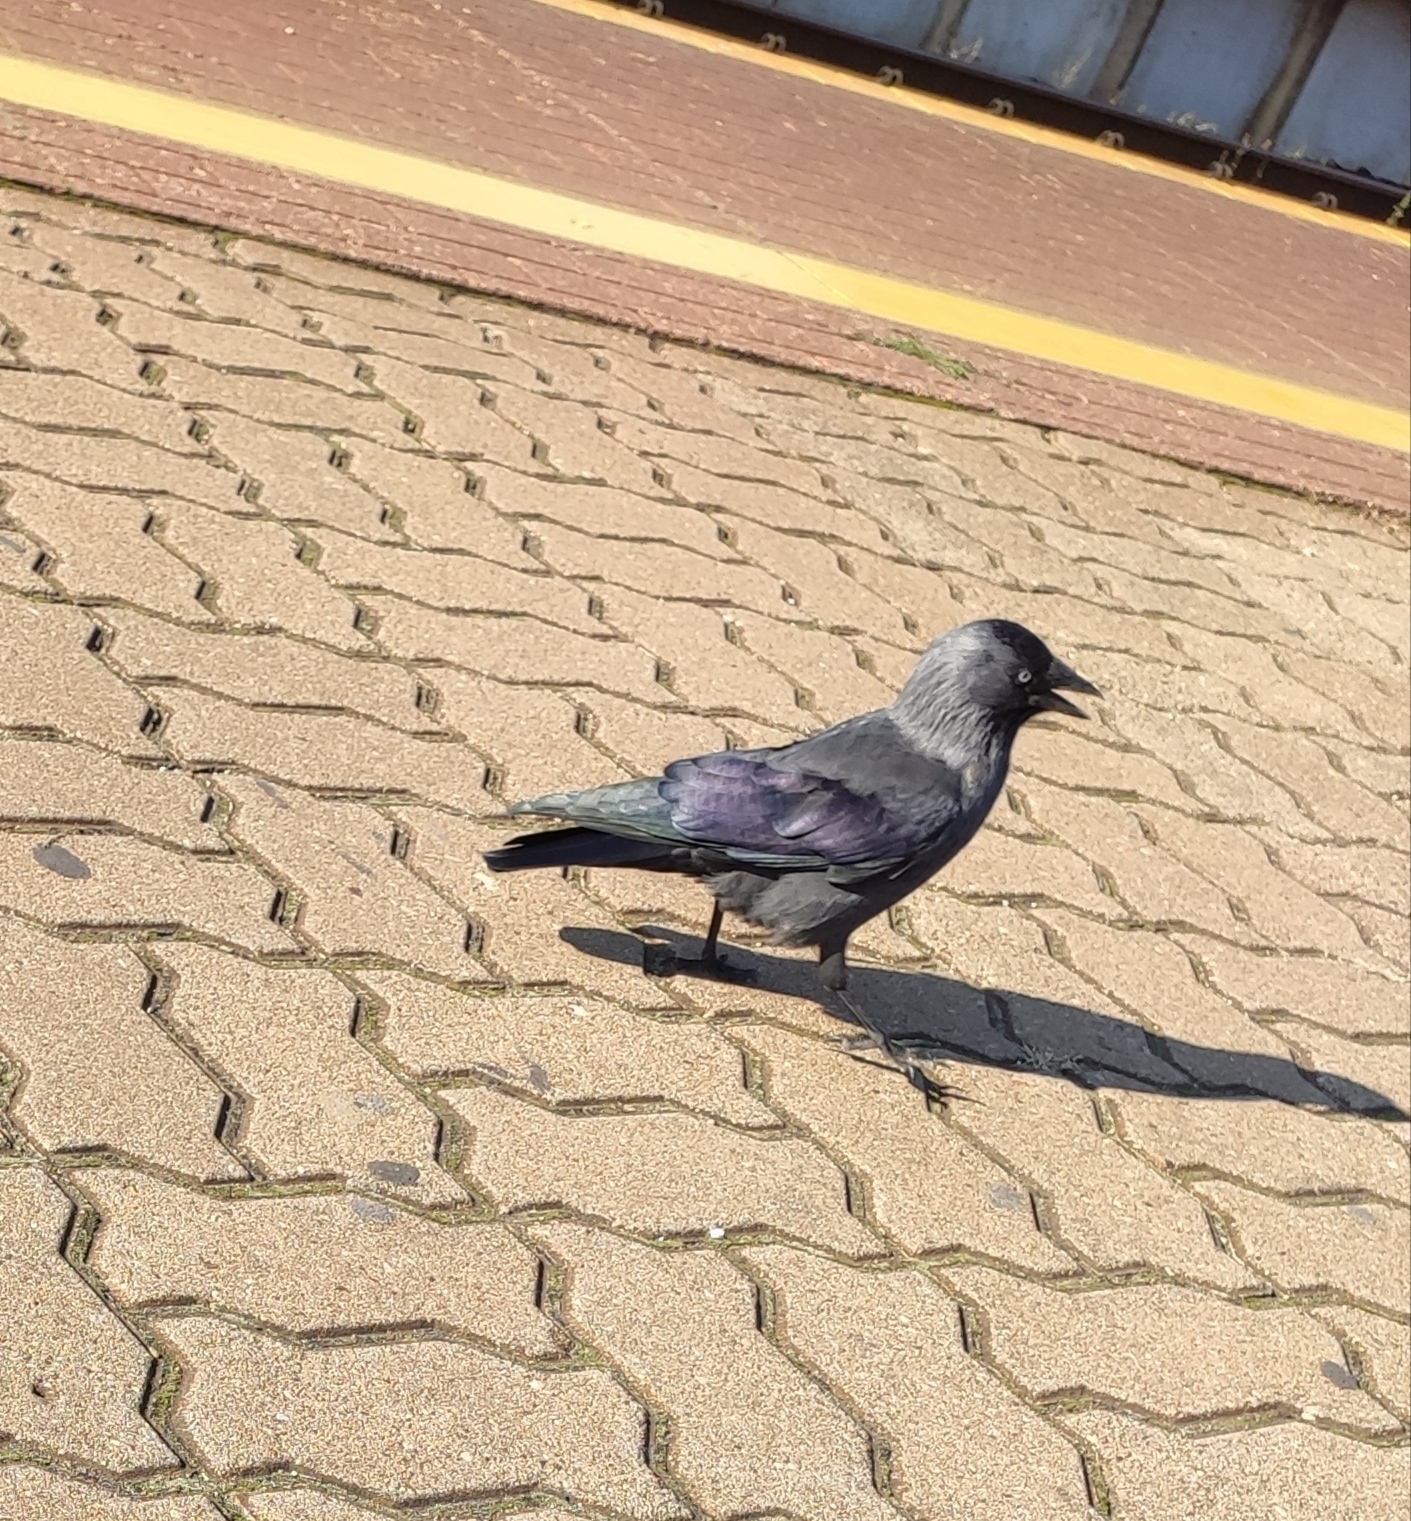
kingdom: Animalia
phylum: Chordata
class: Aves
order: Passeriformes
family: Corvidae
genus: Coloeus
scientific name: Coloeus monedula
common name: Western jackdaw
